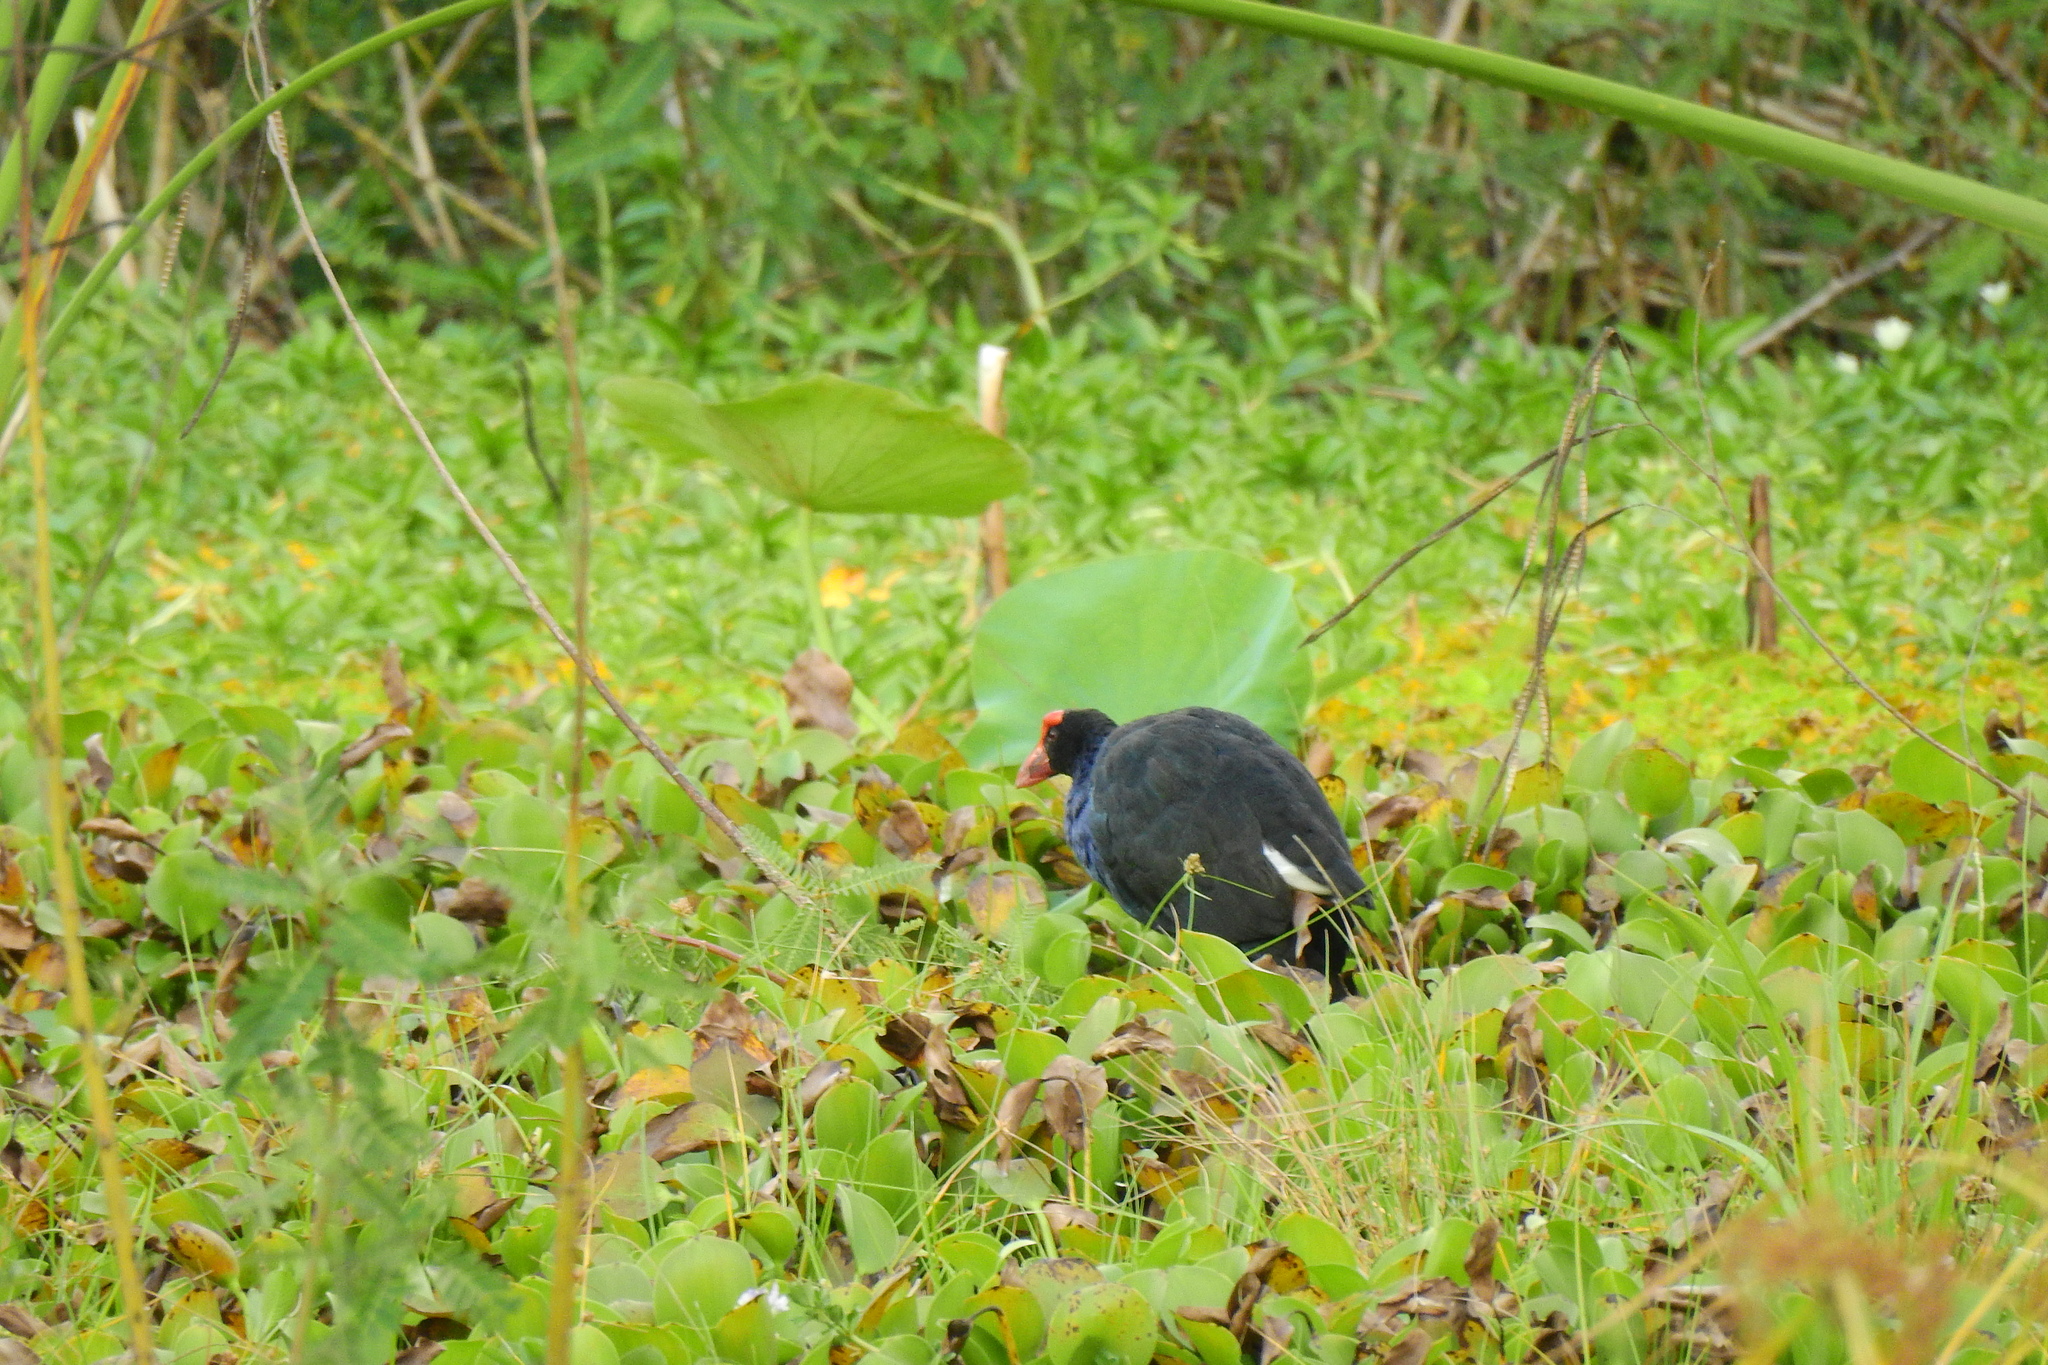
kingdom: Animalia
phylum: Chordata
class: Aves
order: Gruiformes
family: Rallidae
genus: Porphyrio
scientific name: Porphyrio indicus
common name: Black-backed swamphen
